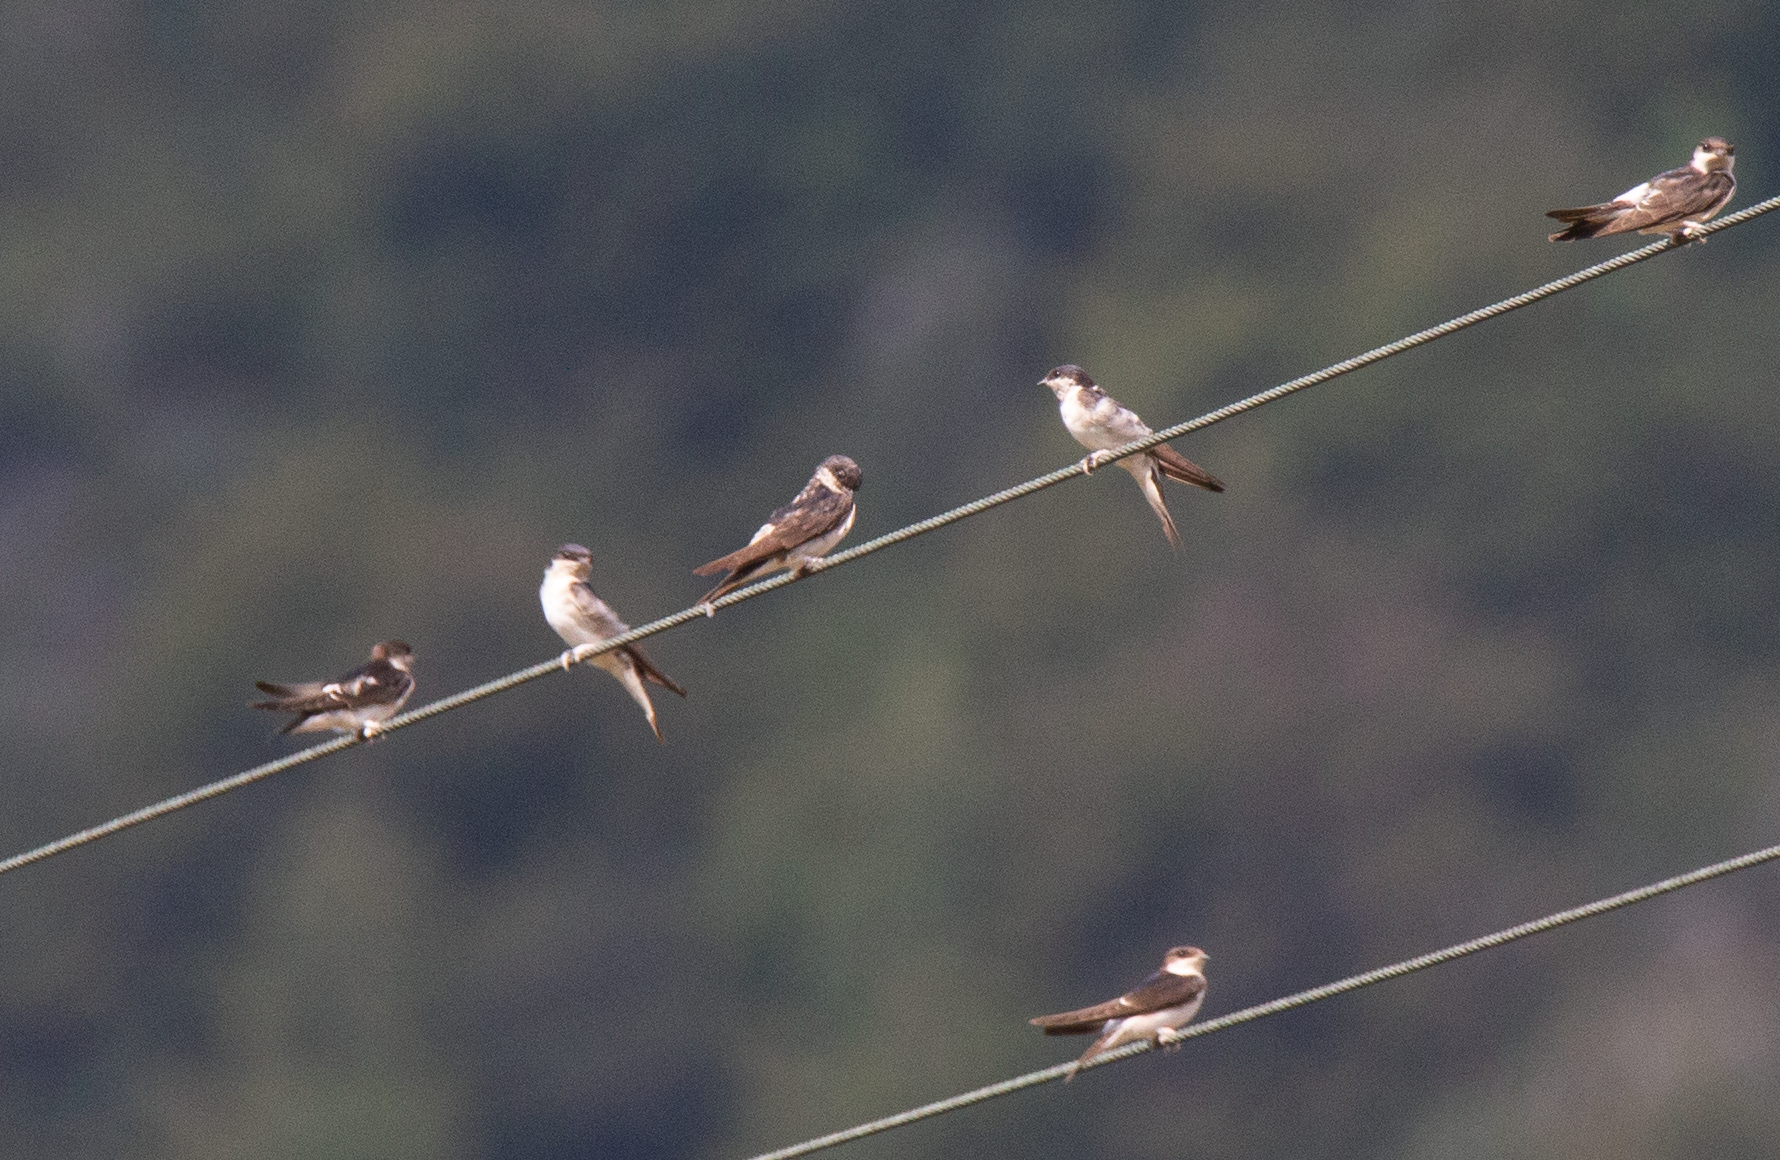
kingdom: Animalia
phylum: Chordata
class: Aves
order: Passeriformes
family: Hirundinidae
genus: Delichon
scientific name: Delichon urbicum
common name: Common house martin
